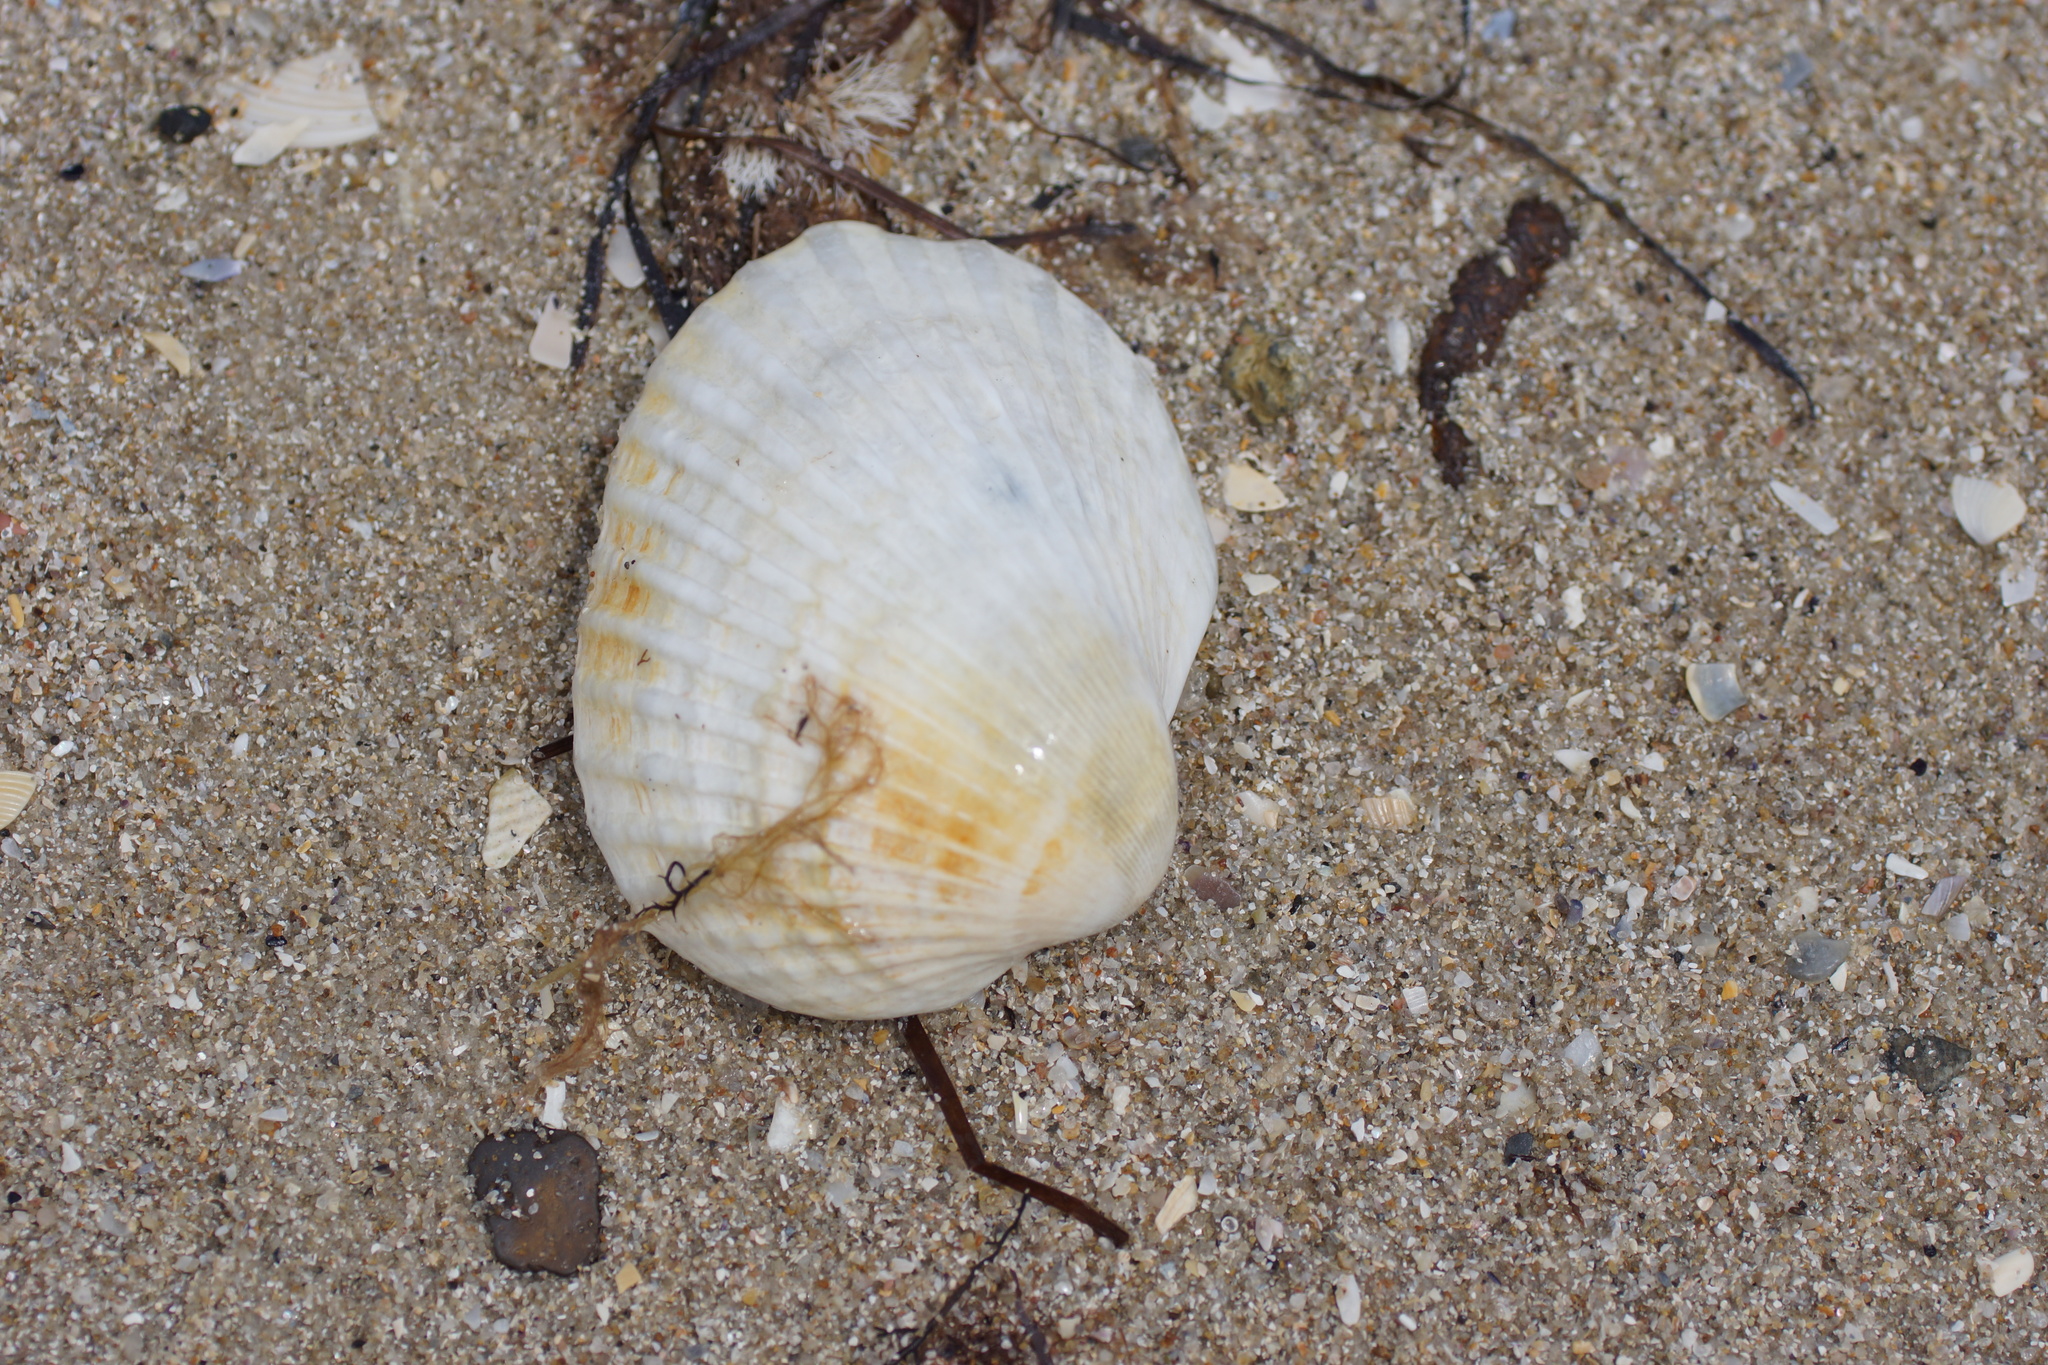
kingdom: Animalia
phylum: Mollusca
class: Bivalvia
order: Arcida
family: Arcidae
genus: Anadara
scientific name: Anadara trapezia
